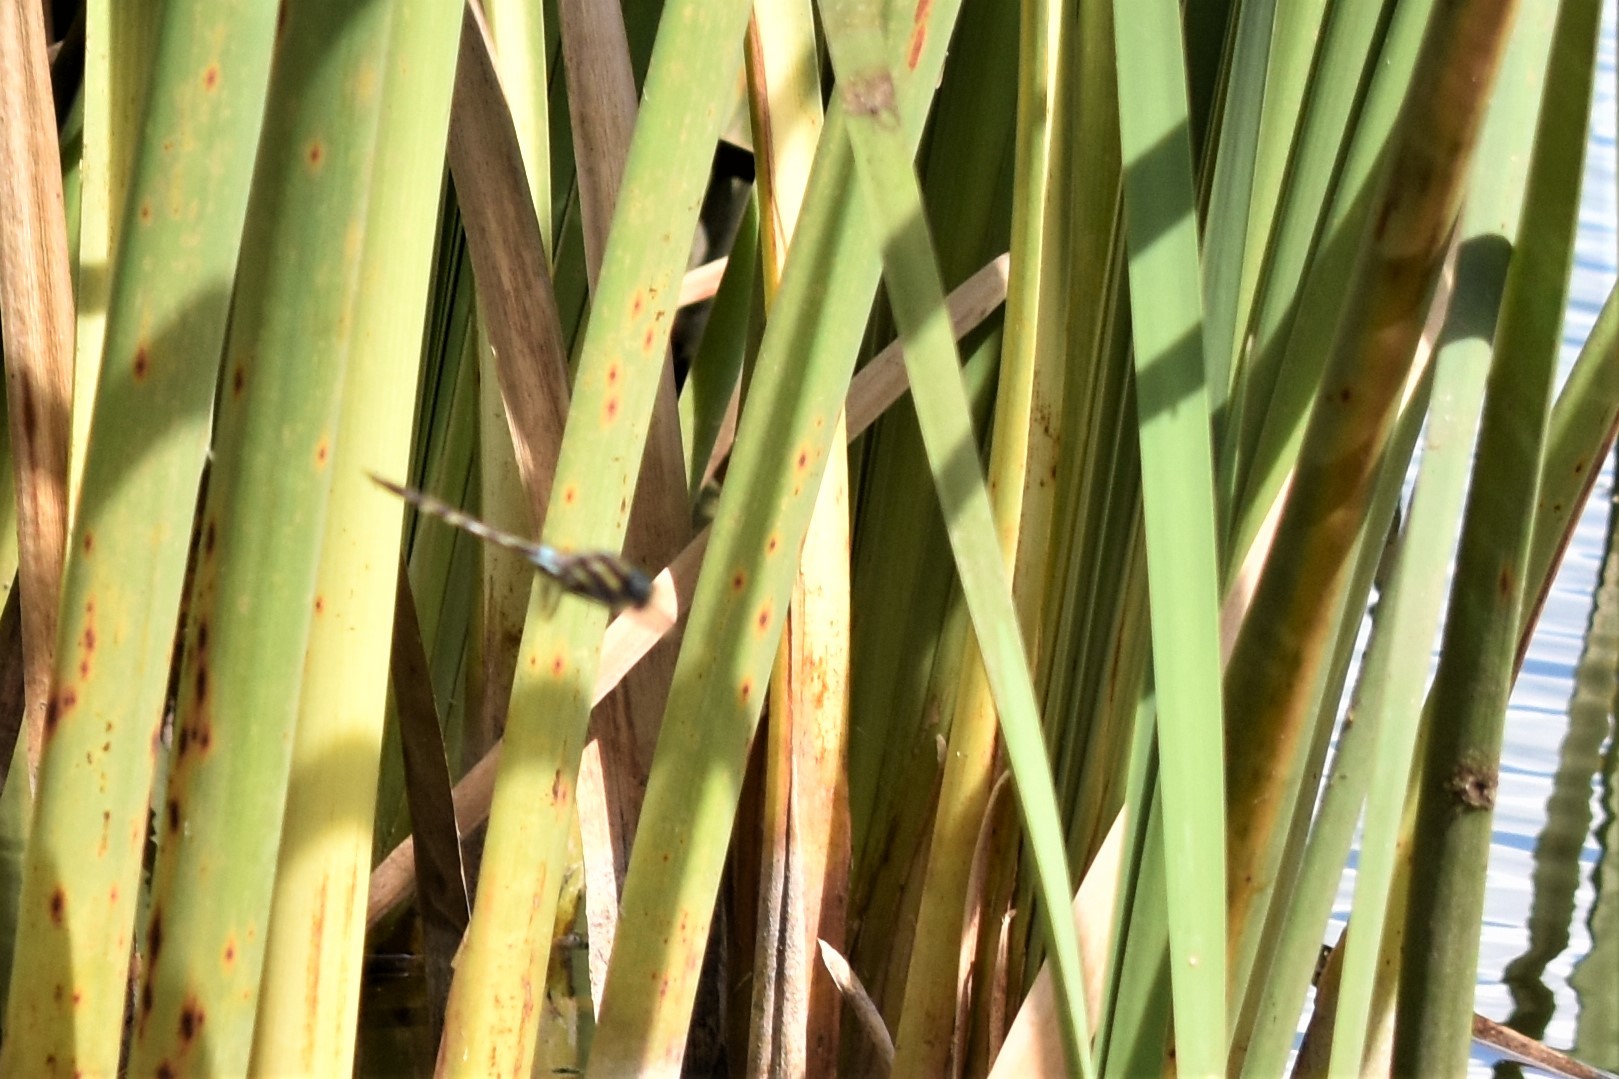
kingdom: Animalia
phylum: Arthropoda
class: Insecta
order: Odonata
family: Aeshnidae
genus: Aeshna
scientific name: Aeshna brevistyla
